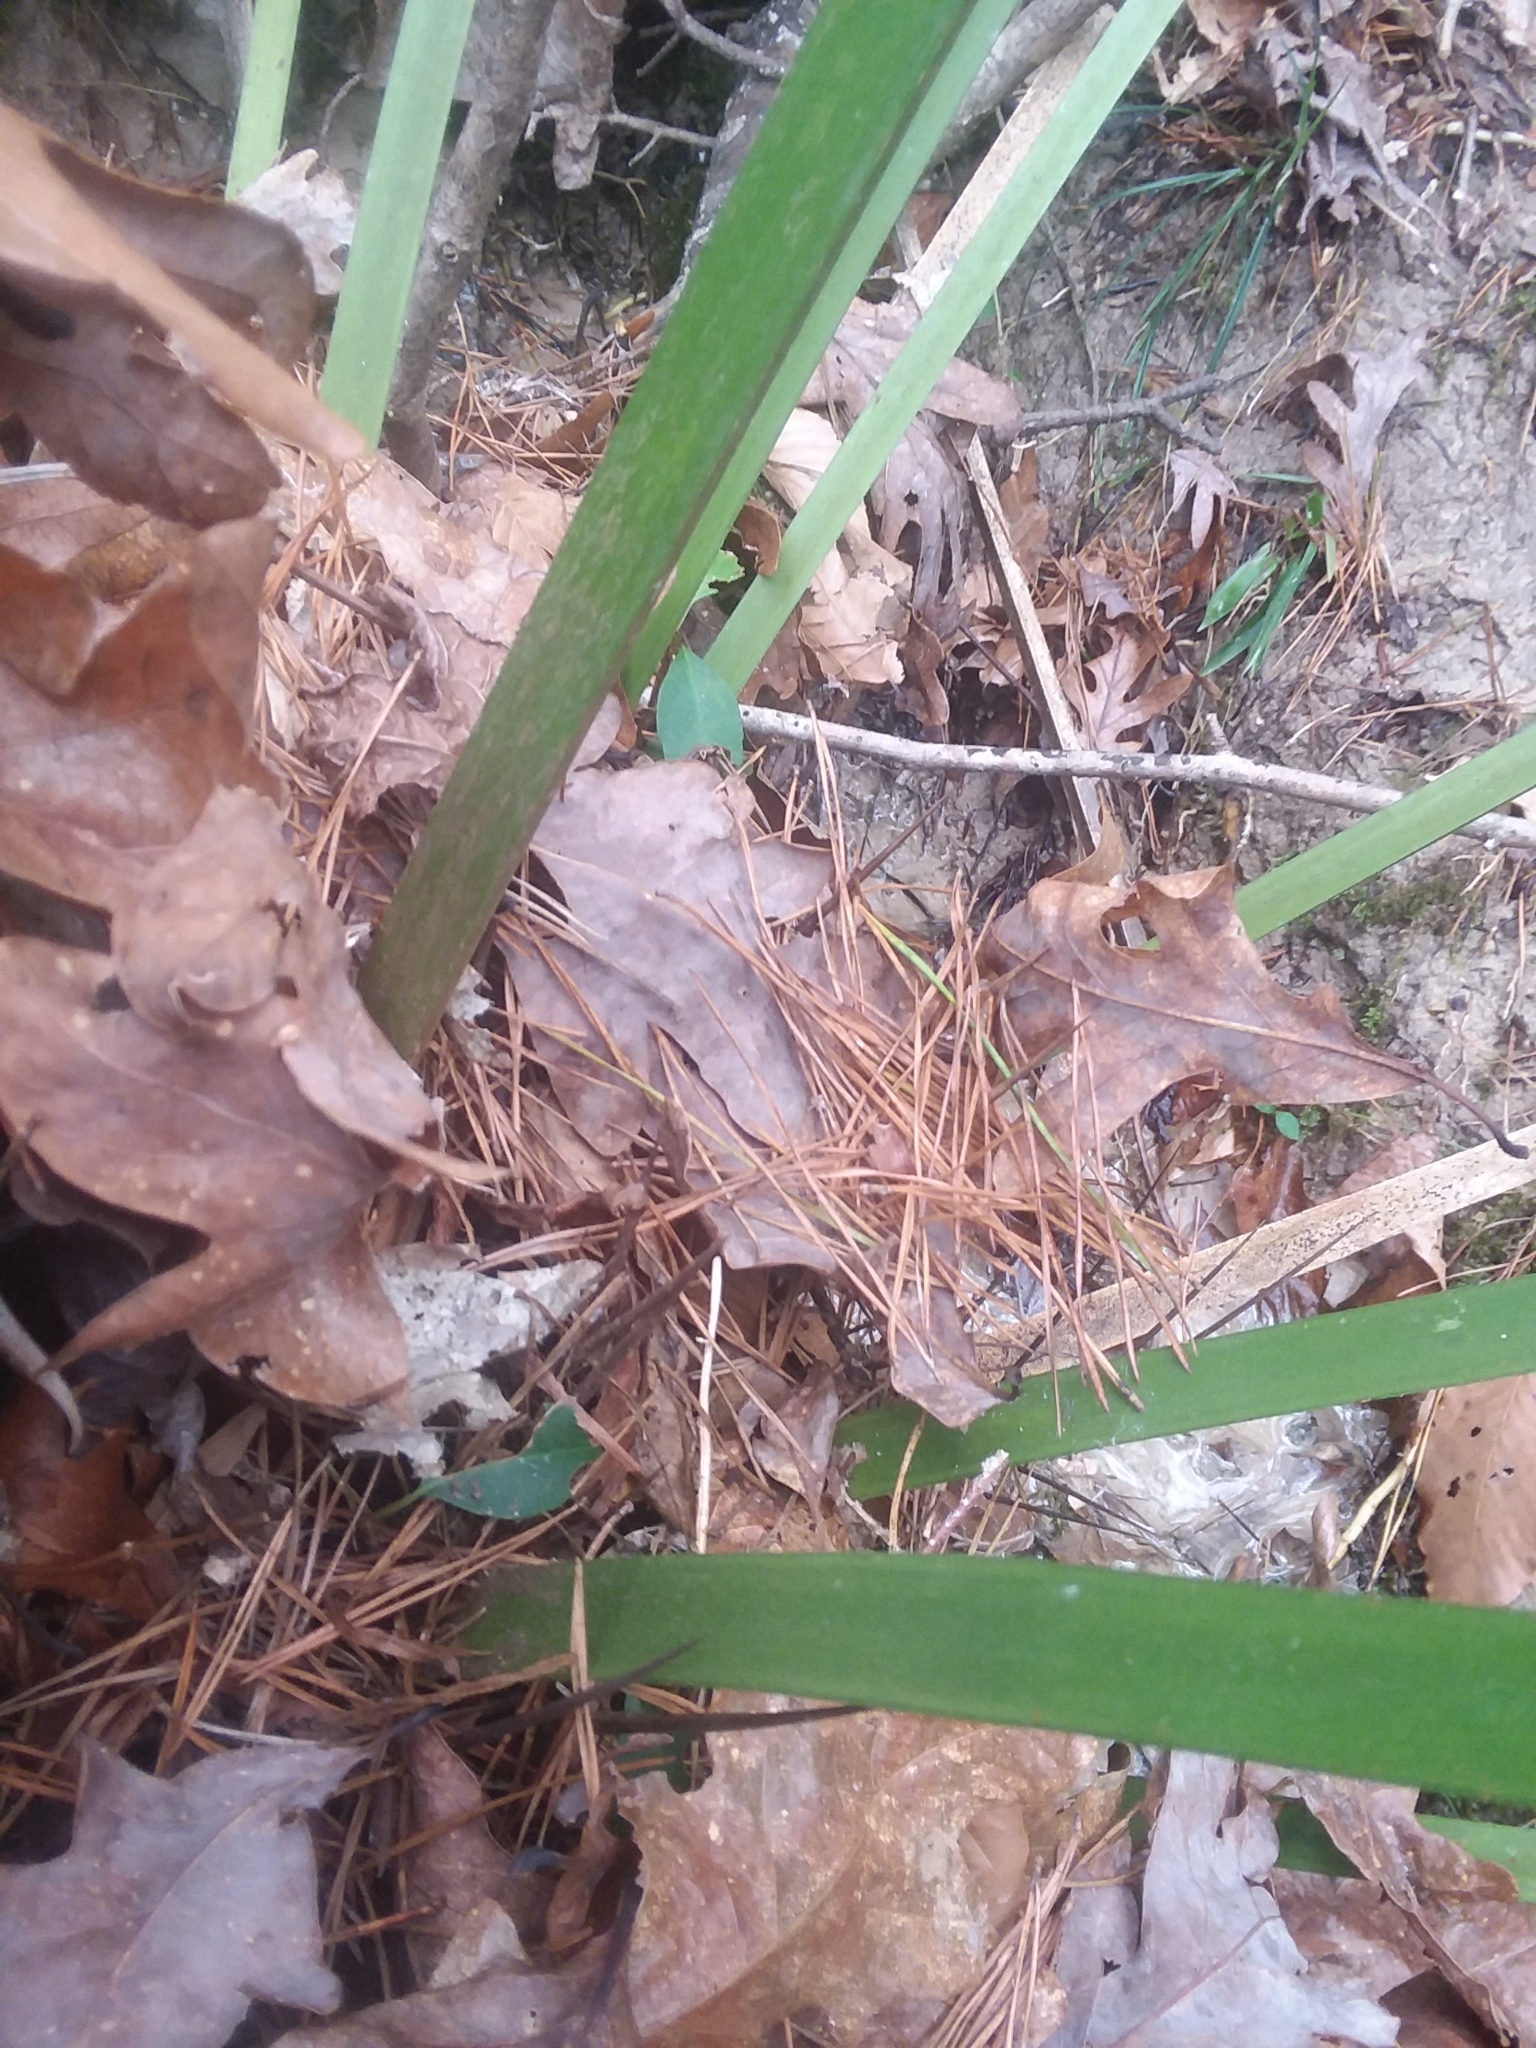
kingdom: Plantae
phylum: Tracheophyta
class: Liliopsida
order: Arecales
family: Arecaceae
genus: Rhapidophyllum
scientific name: Rhapidophyllum hystrix
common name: Porcupine palm
